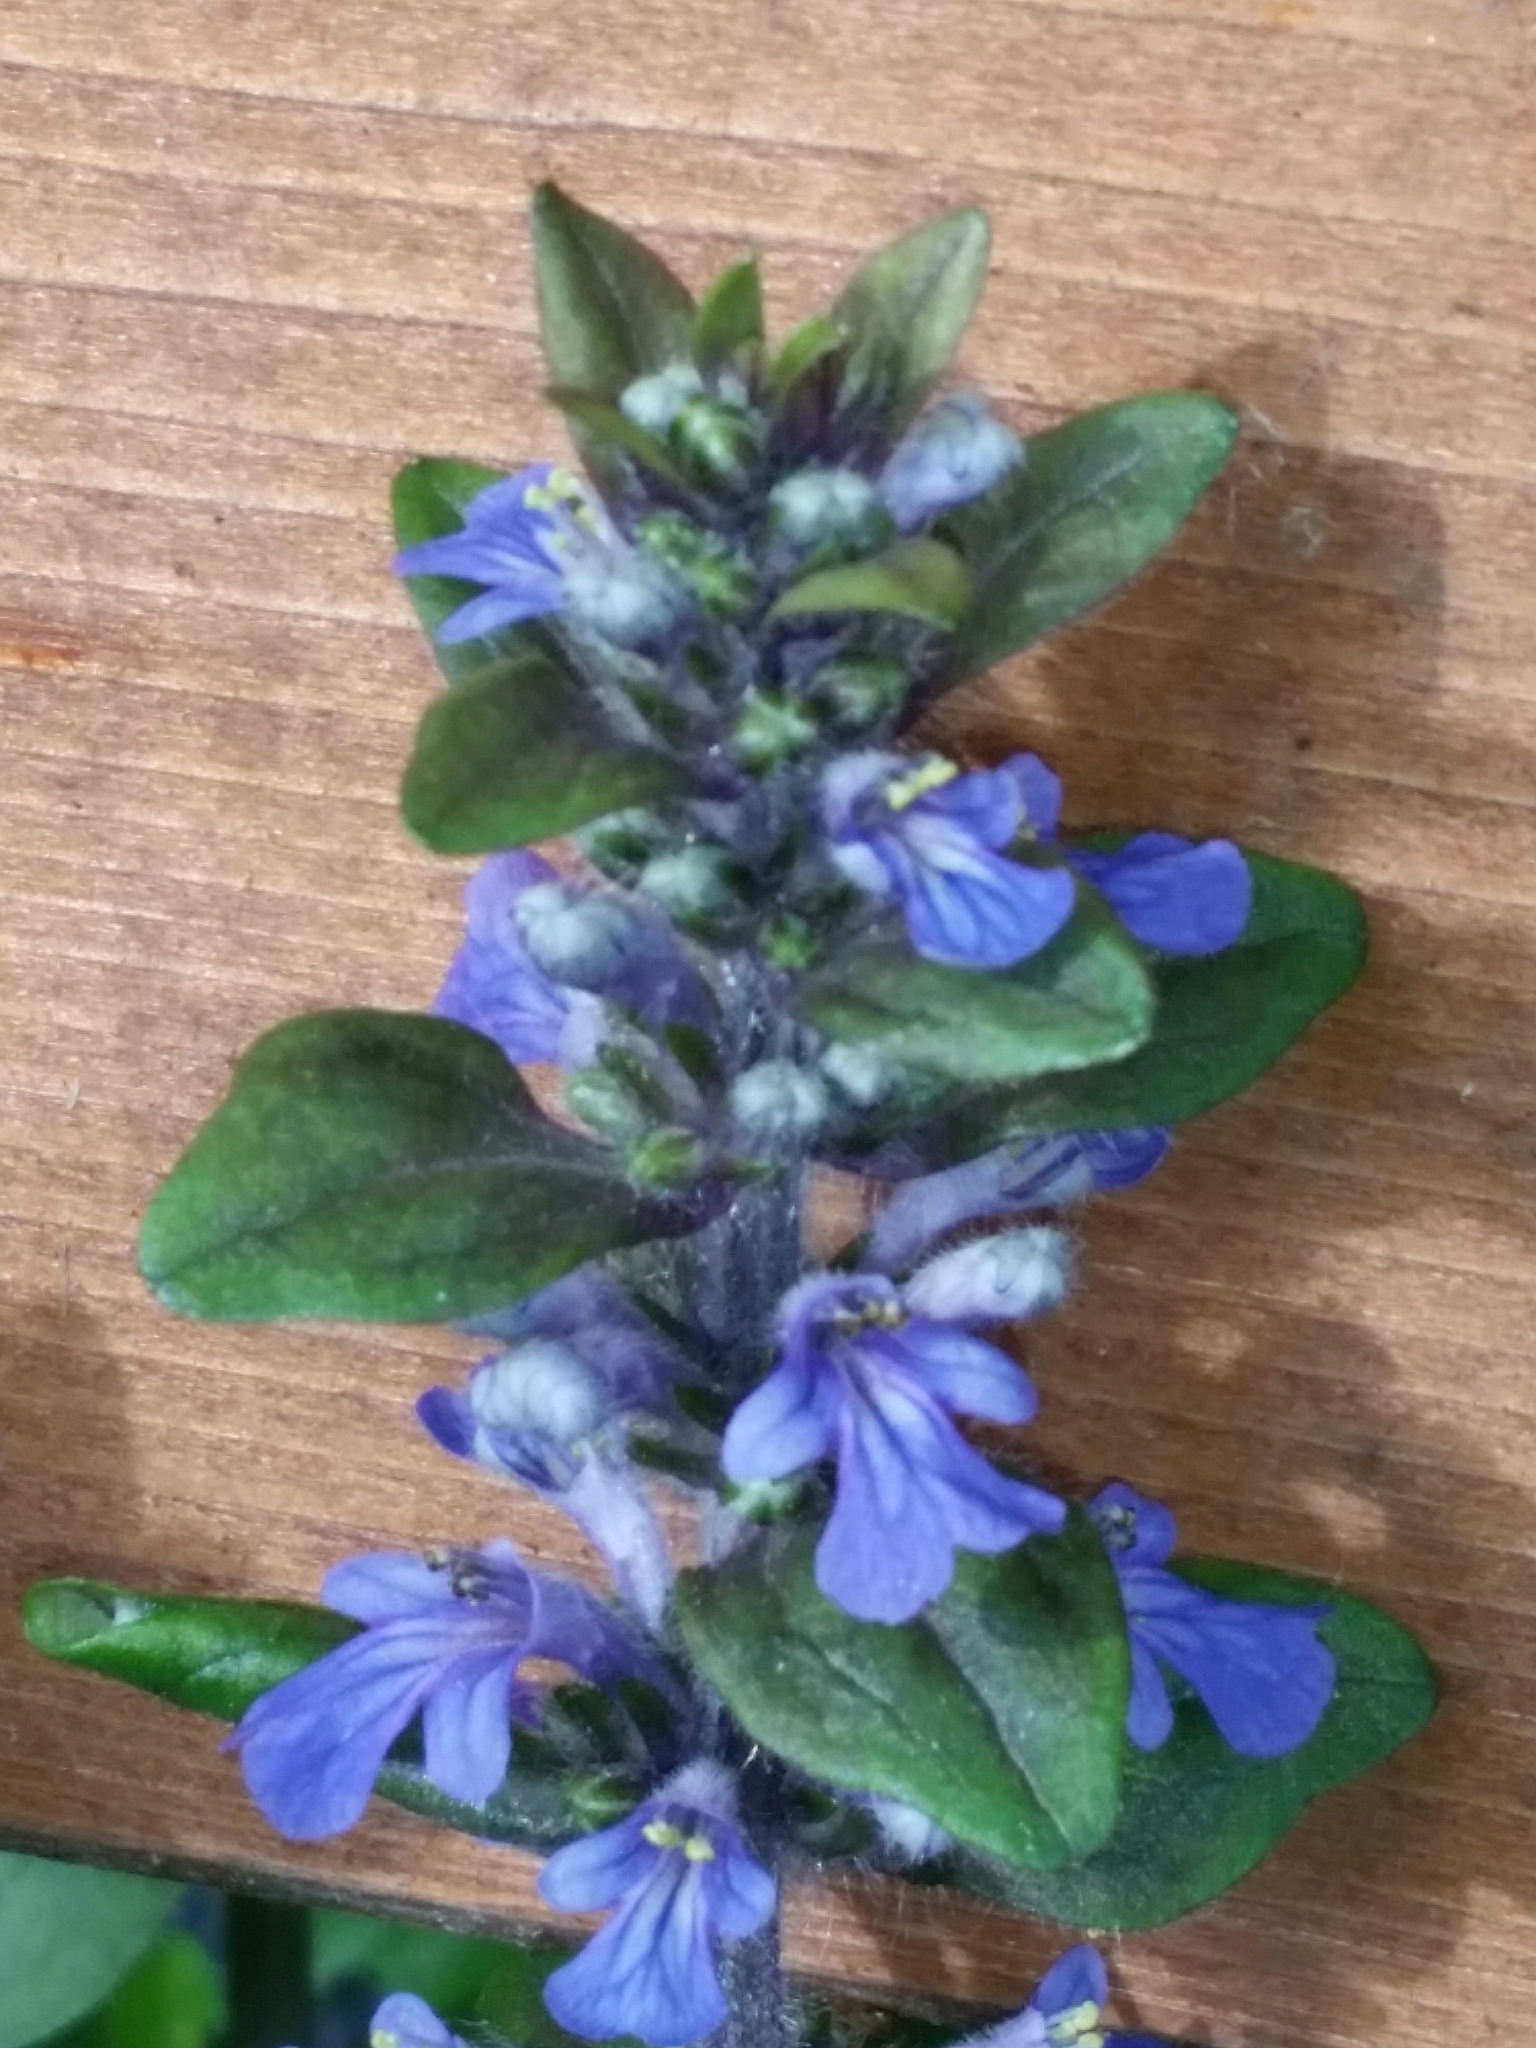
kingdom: Plantae
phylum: Tracheophyta
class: Magnoliopsida
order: Lamiales
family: Lamiaceae
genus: Ajuga
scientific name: Ajuga reptans
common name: Bugle
